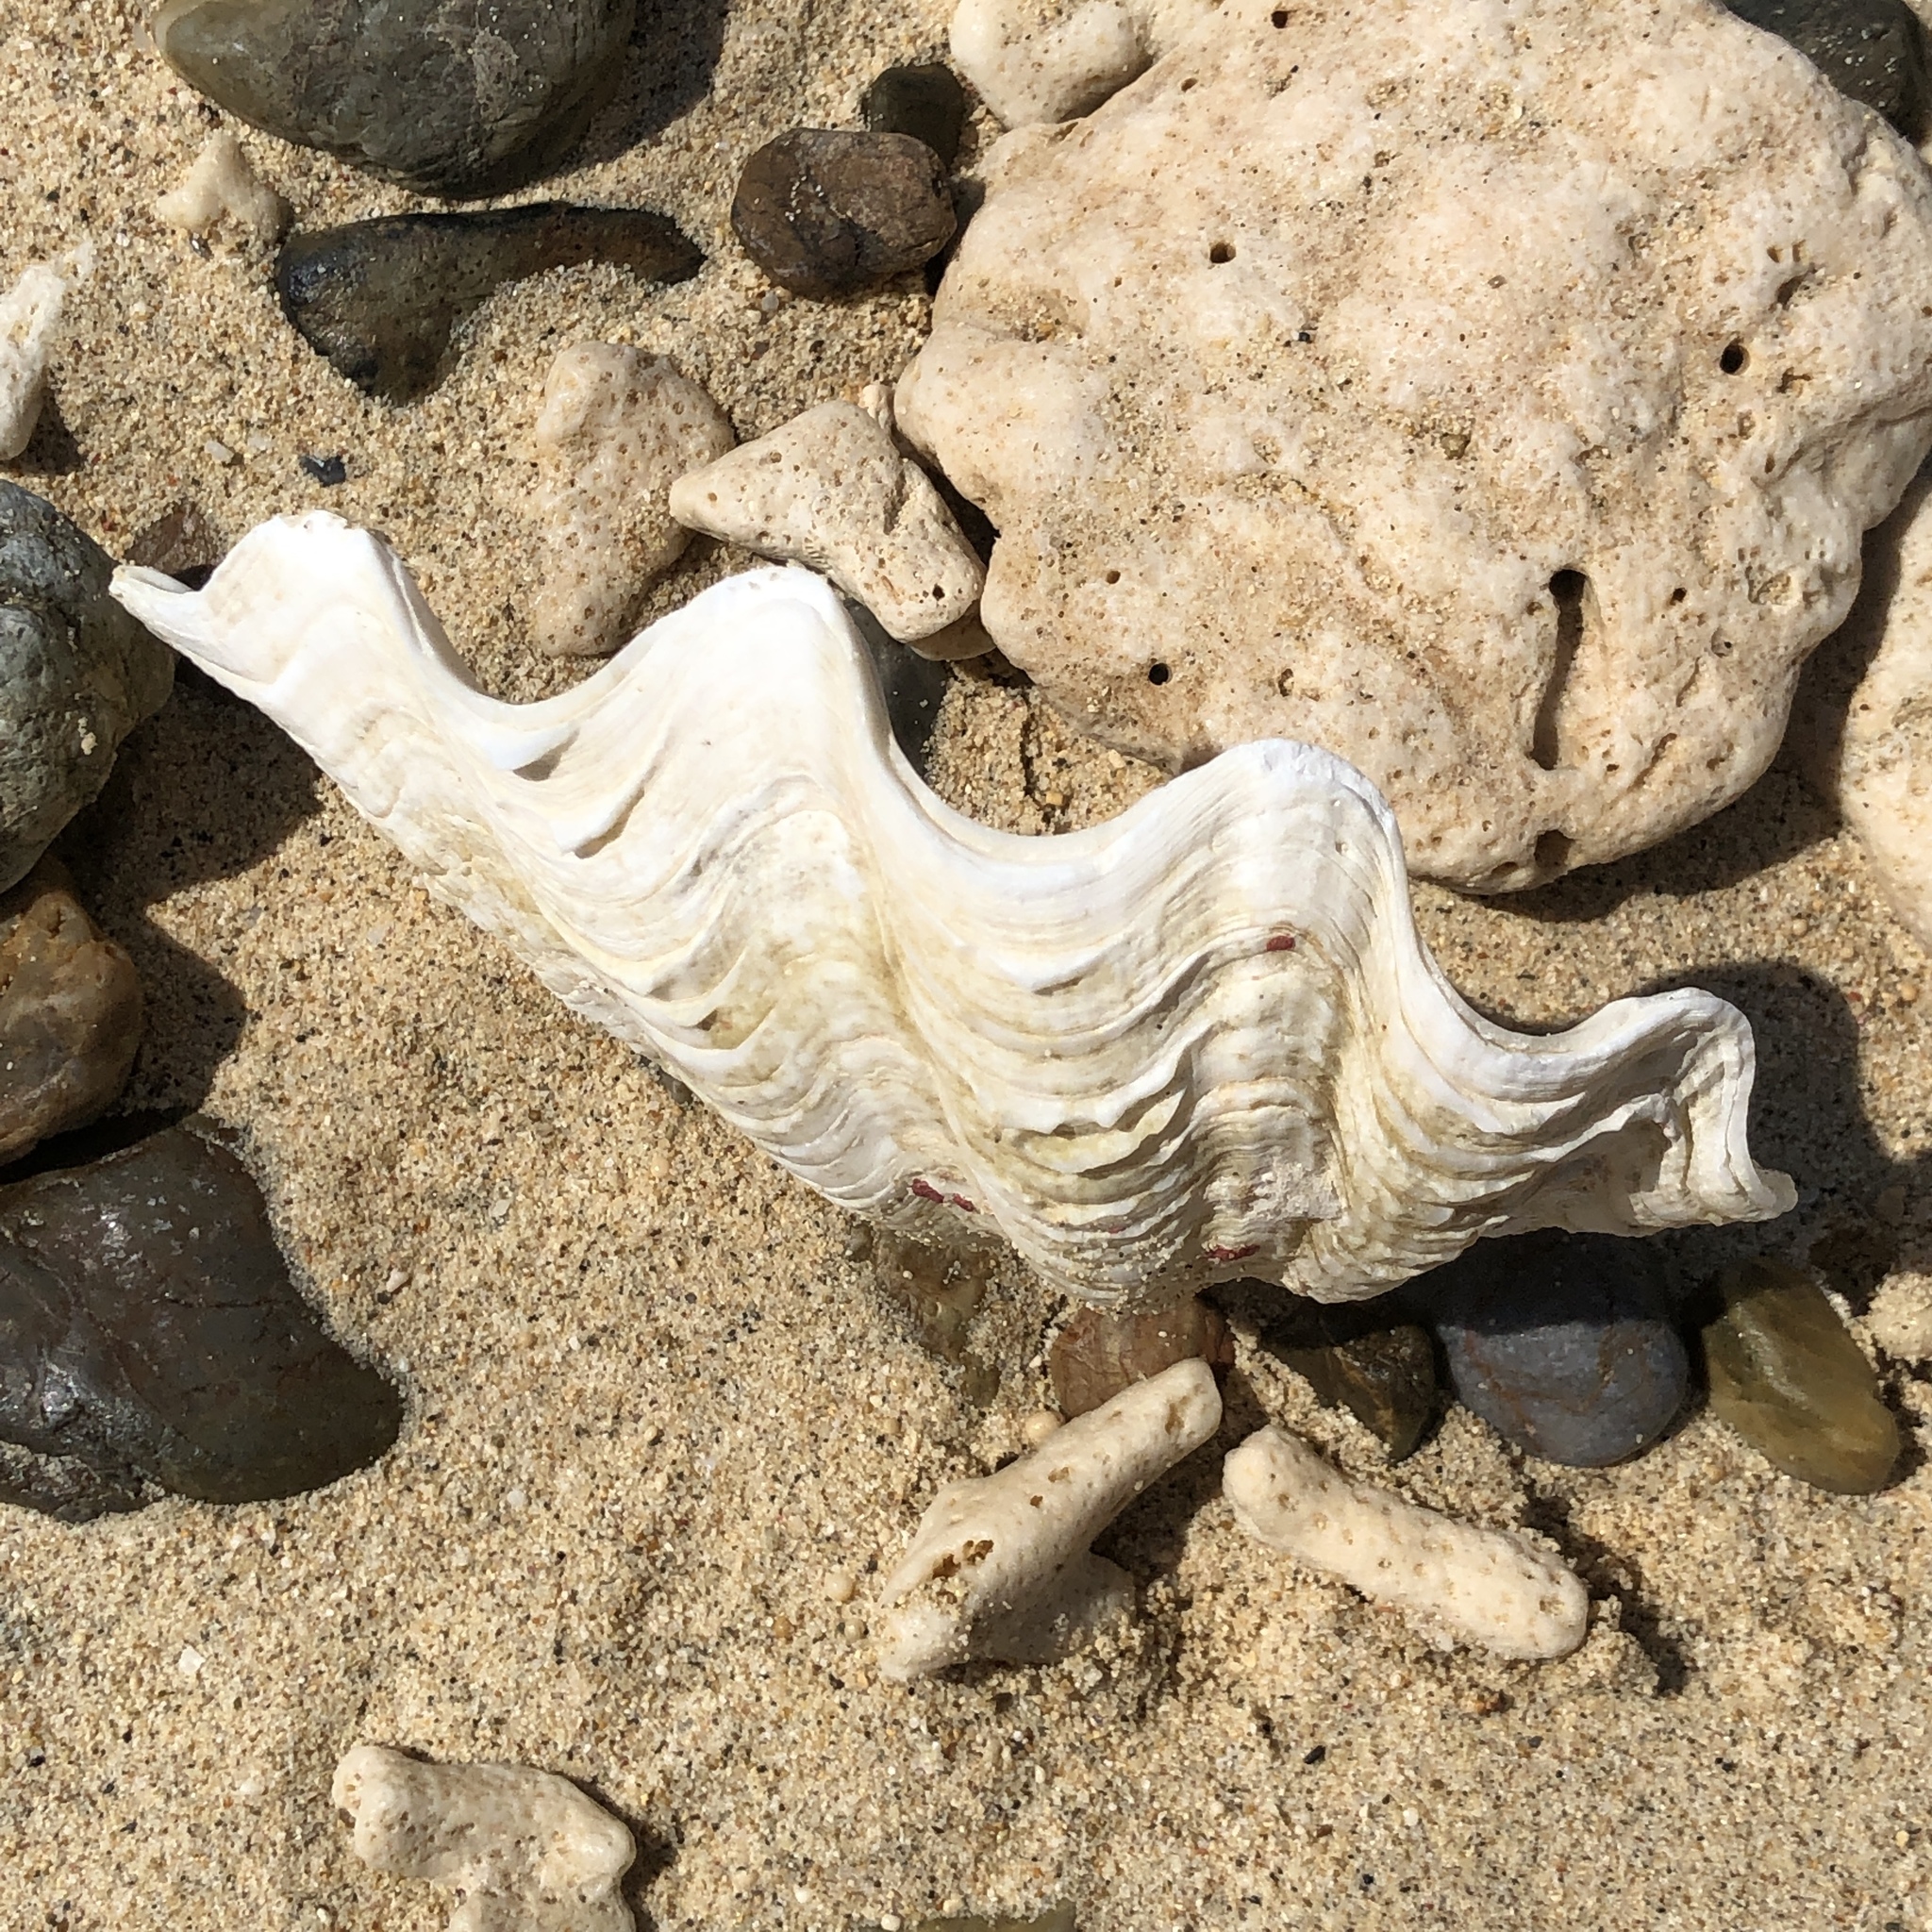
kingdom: Animalia
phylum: Mollusca
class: Bivalvia
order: Cardiida
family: Cardiidae
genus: Tridacna
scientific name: Tridacna maxima
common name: Small giant clam
